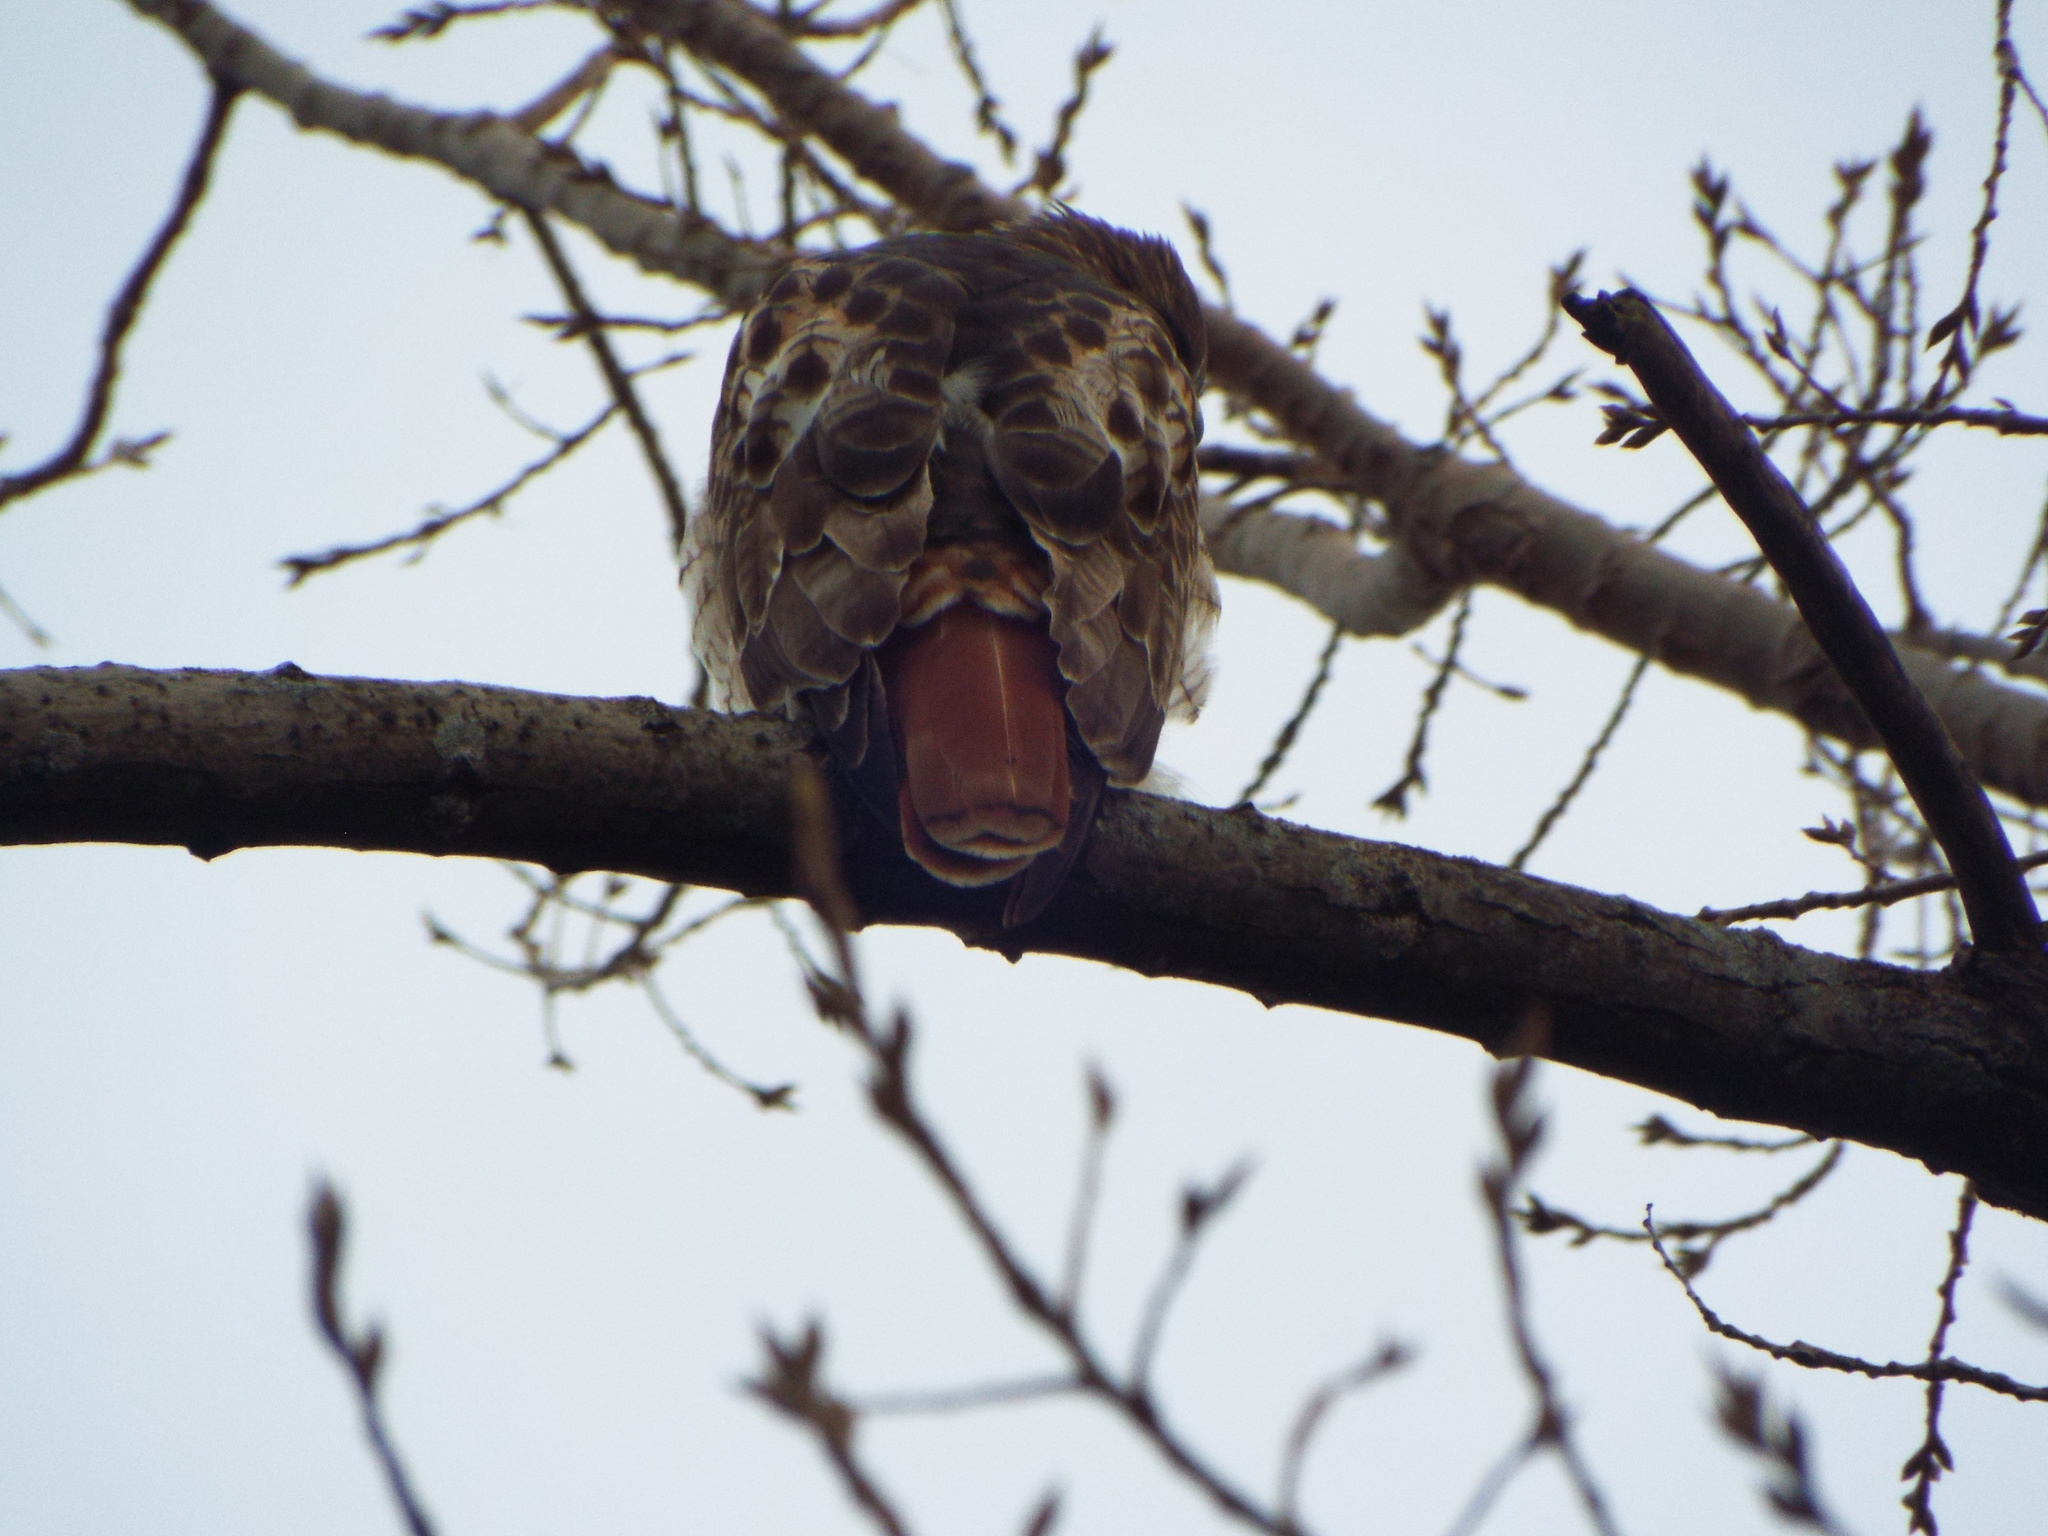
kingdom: Animalia
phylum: Chordata
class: Aves
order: Accipitriformes
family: Accipitridae
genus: Buteo
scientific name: Buteo jamaicensis
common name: Red-tailed hawk
